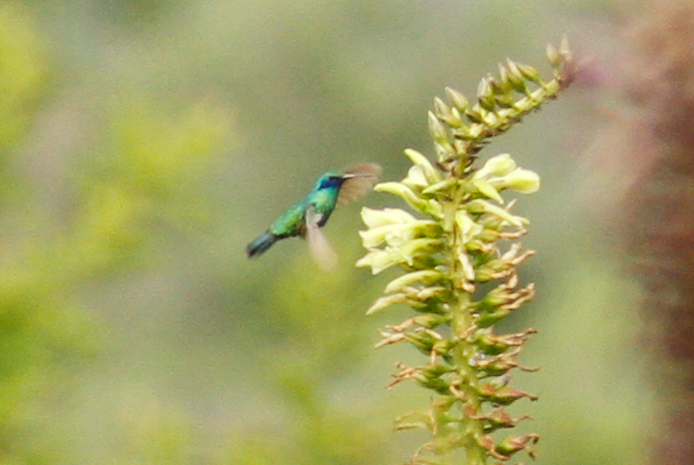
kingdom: Animalia
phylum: Chordata
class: Aves
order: Apodiformes
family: Trochilidae
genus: Colibri
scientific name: Colibri coruscans
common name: Sparkling violetear
